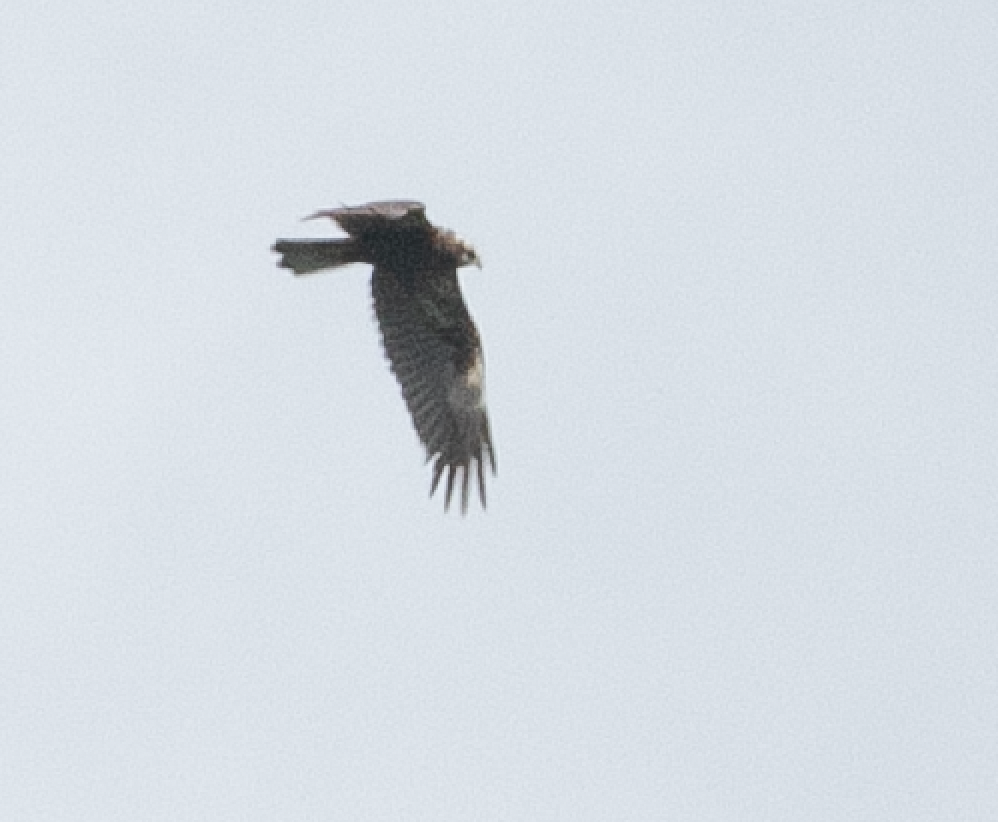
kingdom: Animalia
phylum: Chordata
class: Aves
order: Accipitriformes
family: Accipitridae
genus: Circus
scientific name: Circus aeruginosus
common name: Western marsh harrier
